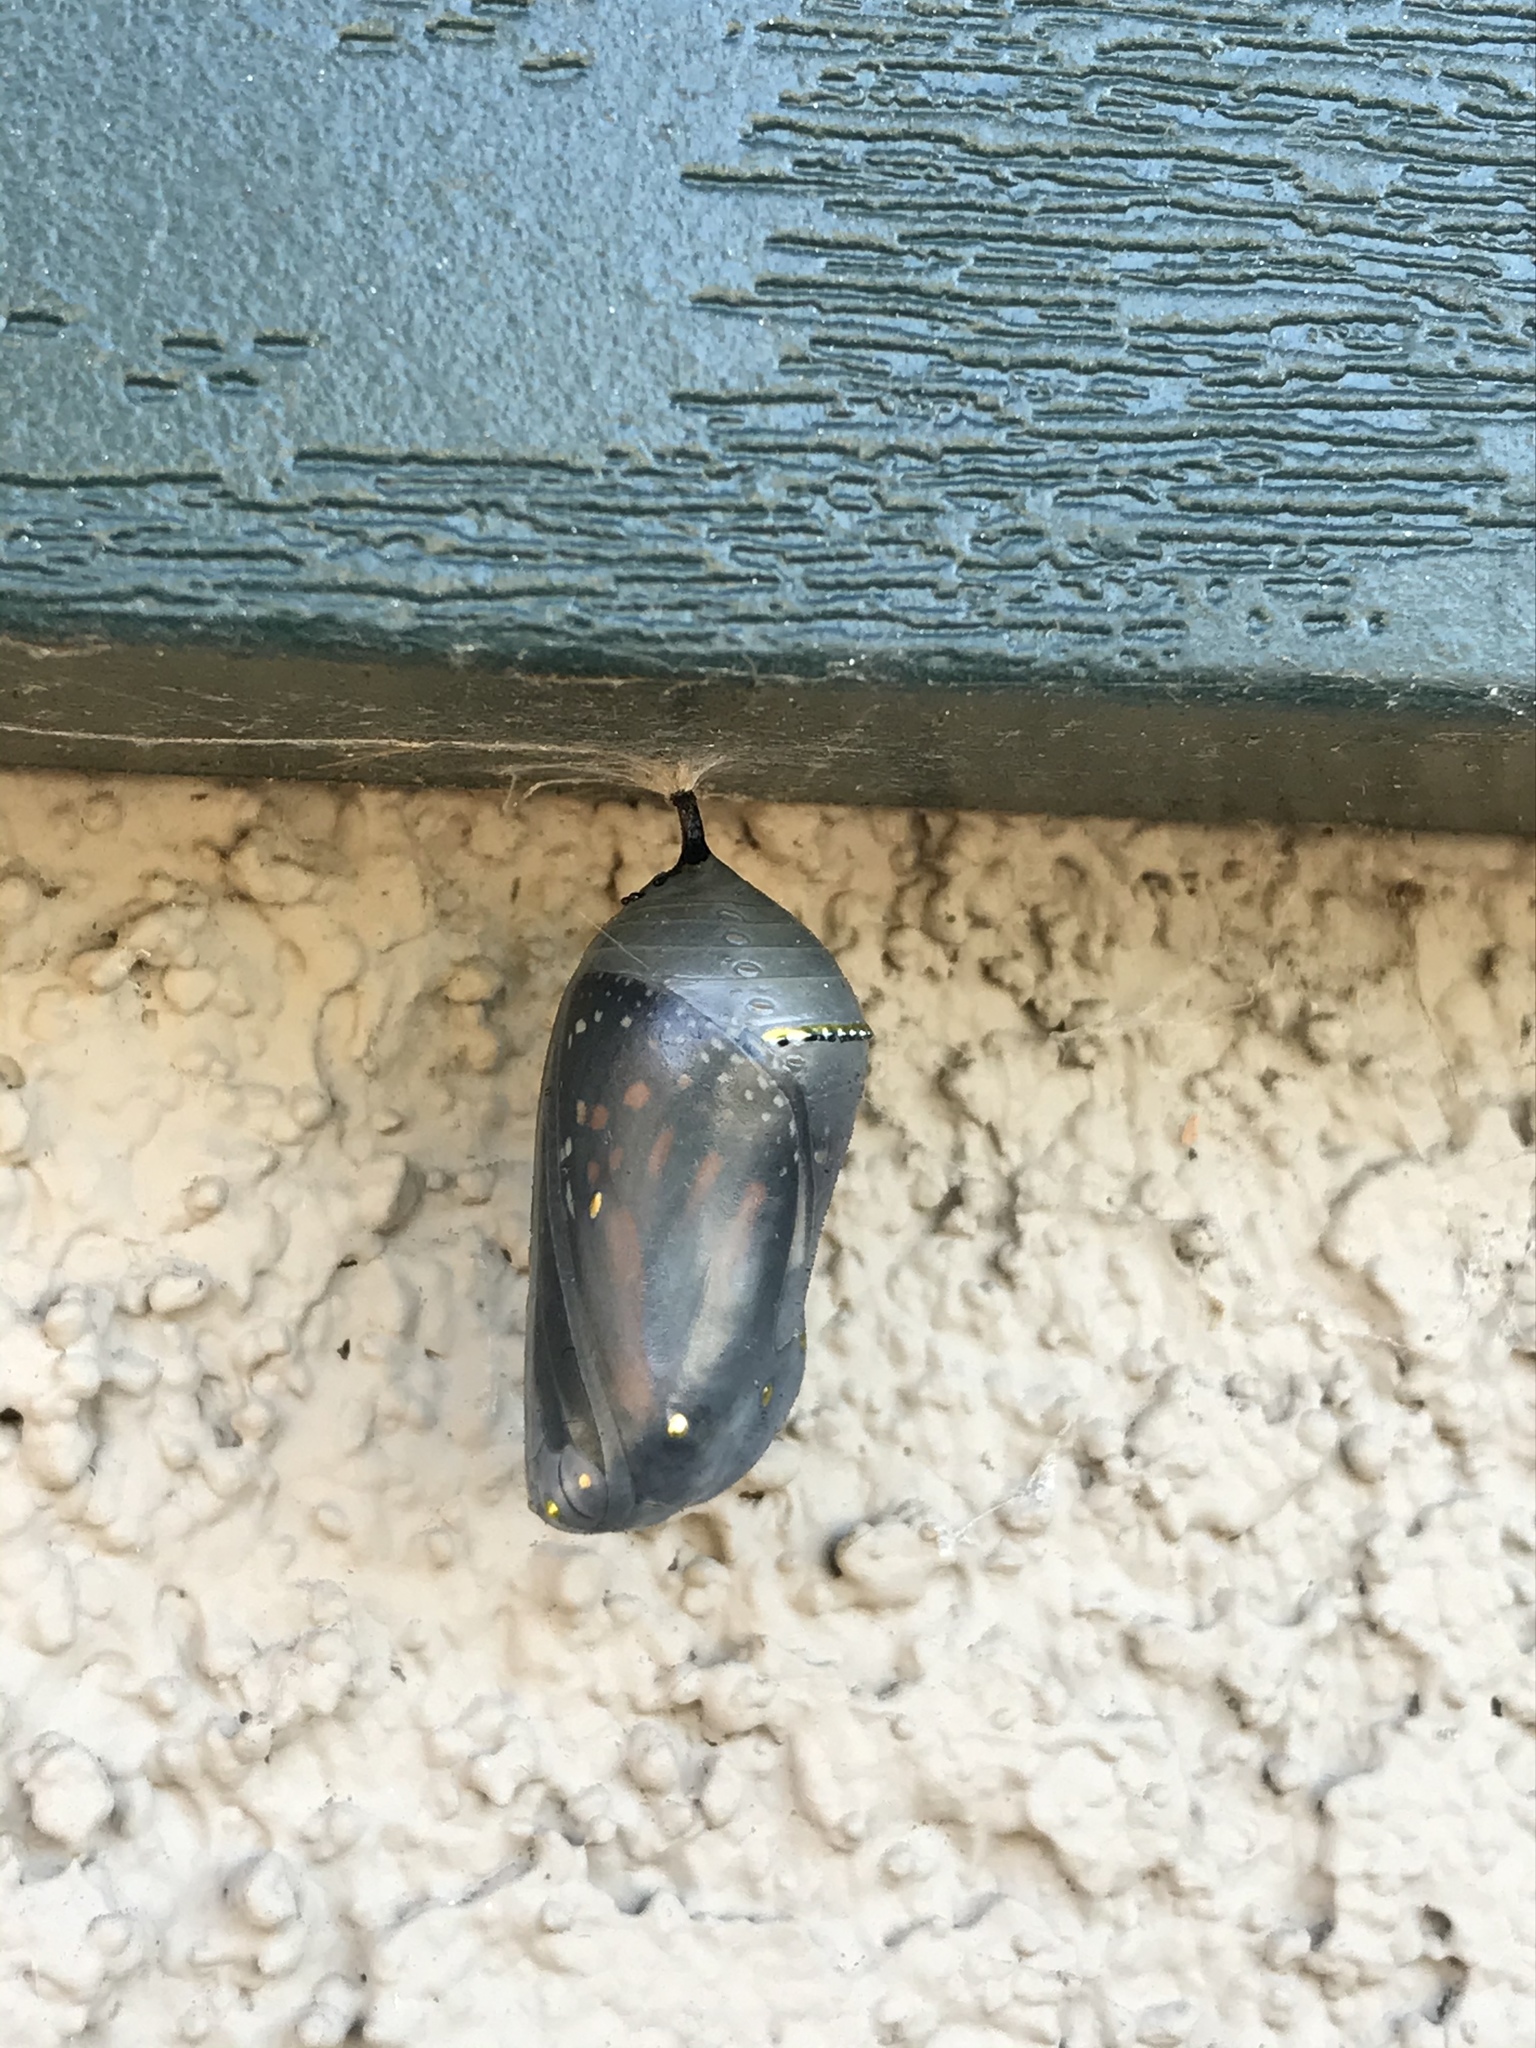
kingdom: Animalia
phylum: Arthropoda
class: Insecta
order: Lepidoptera
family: Nymphalidae
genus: Danaus
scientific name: Danaus plexippus
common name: Monarch
